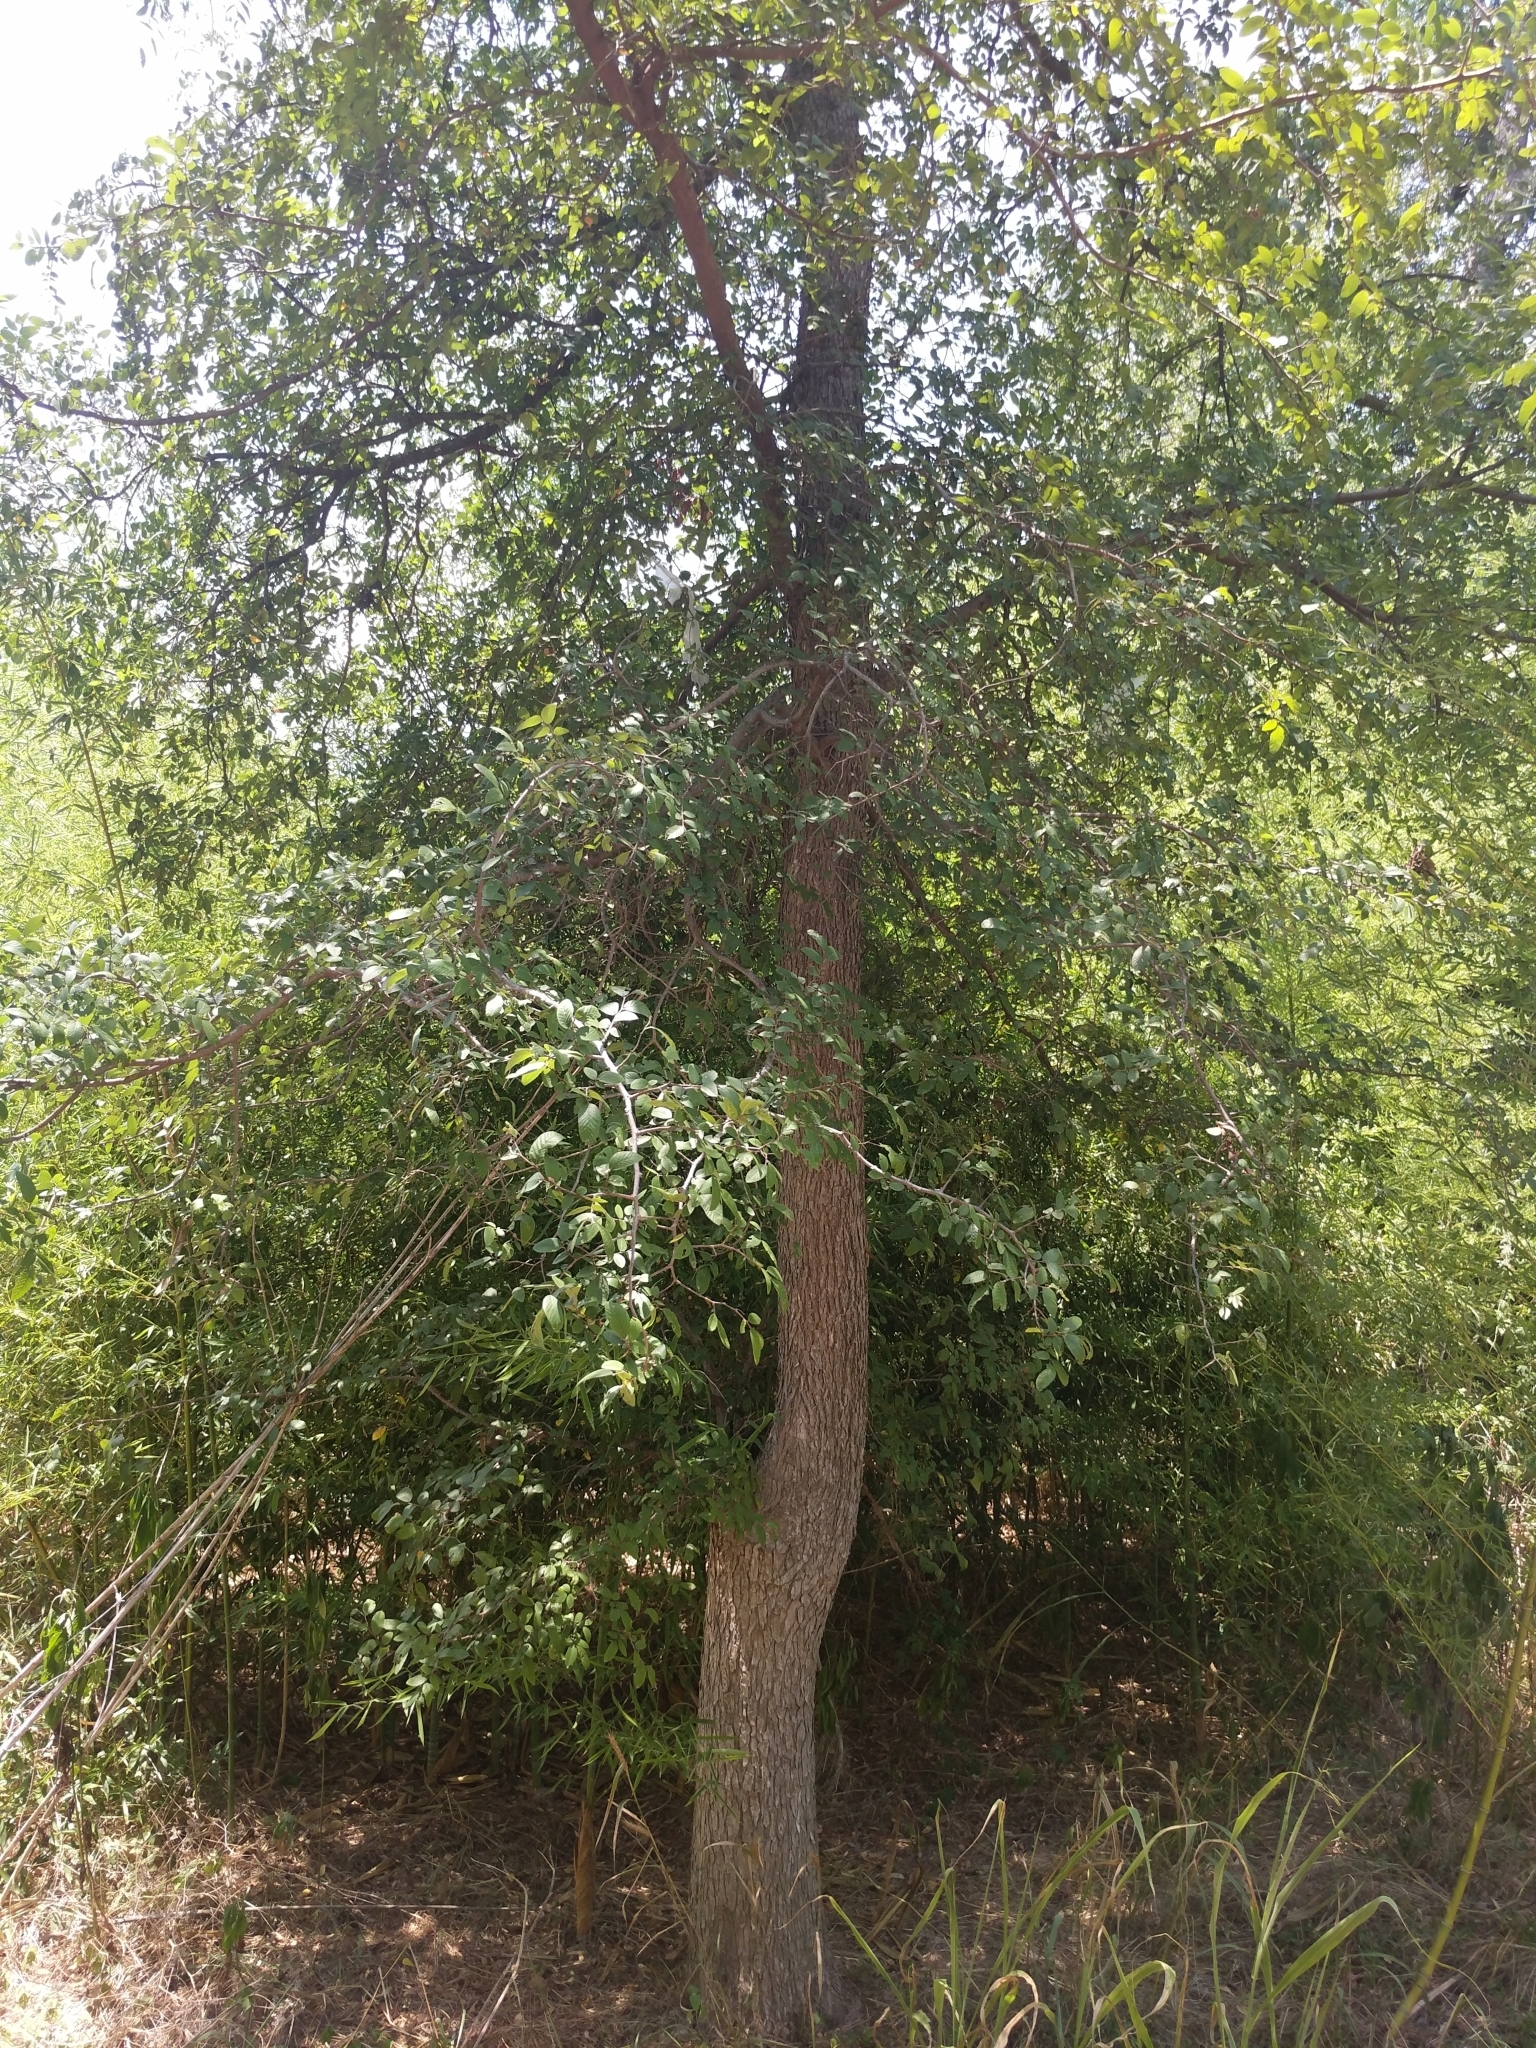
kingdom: Plantae
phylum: Tracheophyta
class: Magnoliopsida
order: Rosales
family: Ulmaceae
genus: Ulmus
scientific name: Ulmus crassifolia
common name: Basket elm
